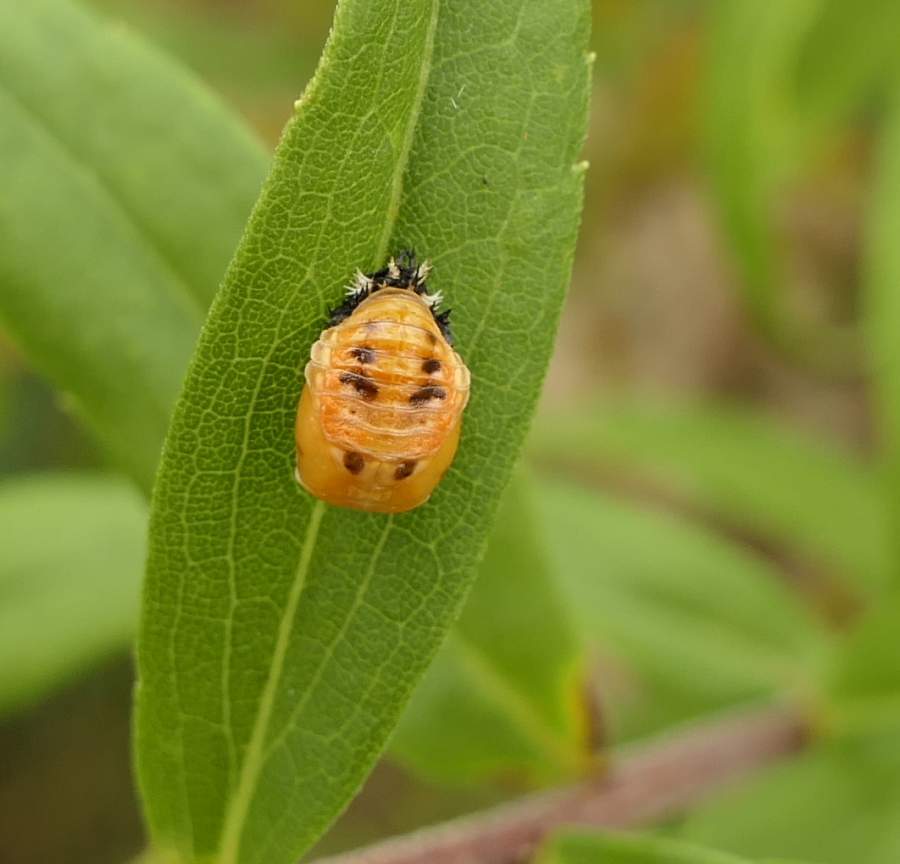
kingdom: Animalia
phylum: Arthropoda
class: Insecta
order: Coleoptera
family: Coccinellidae
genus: Harmonia
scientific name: Harmonia axyridis
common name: Harlequin ladybird
